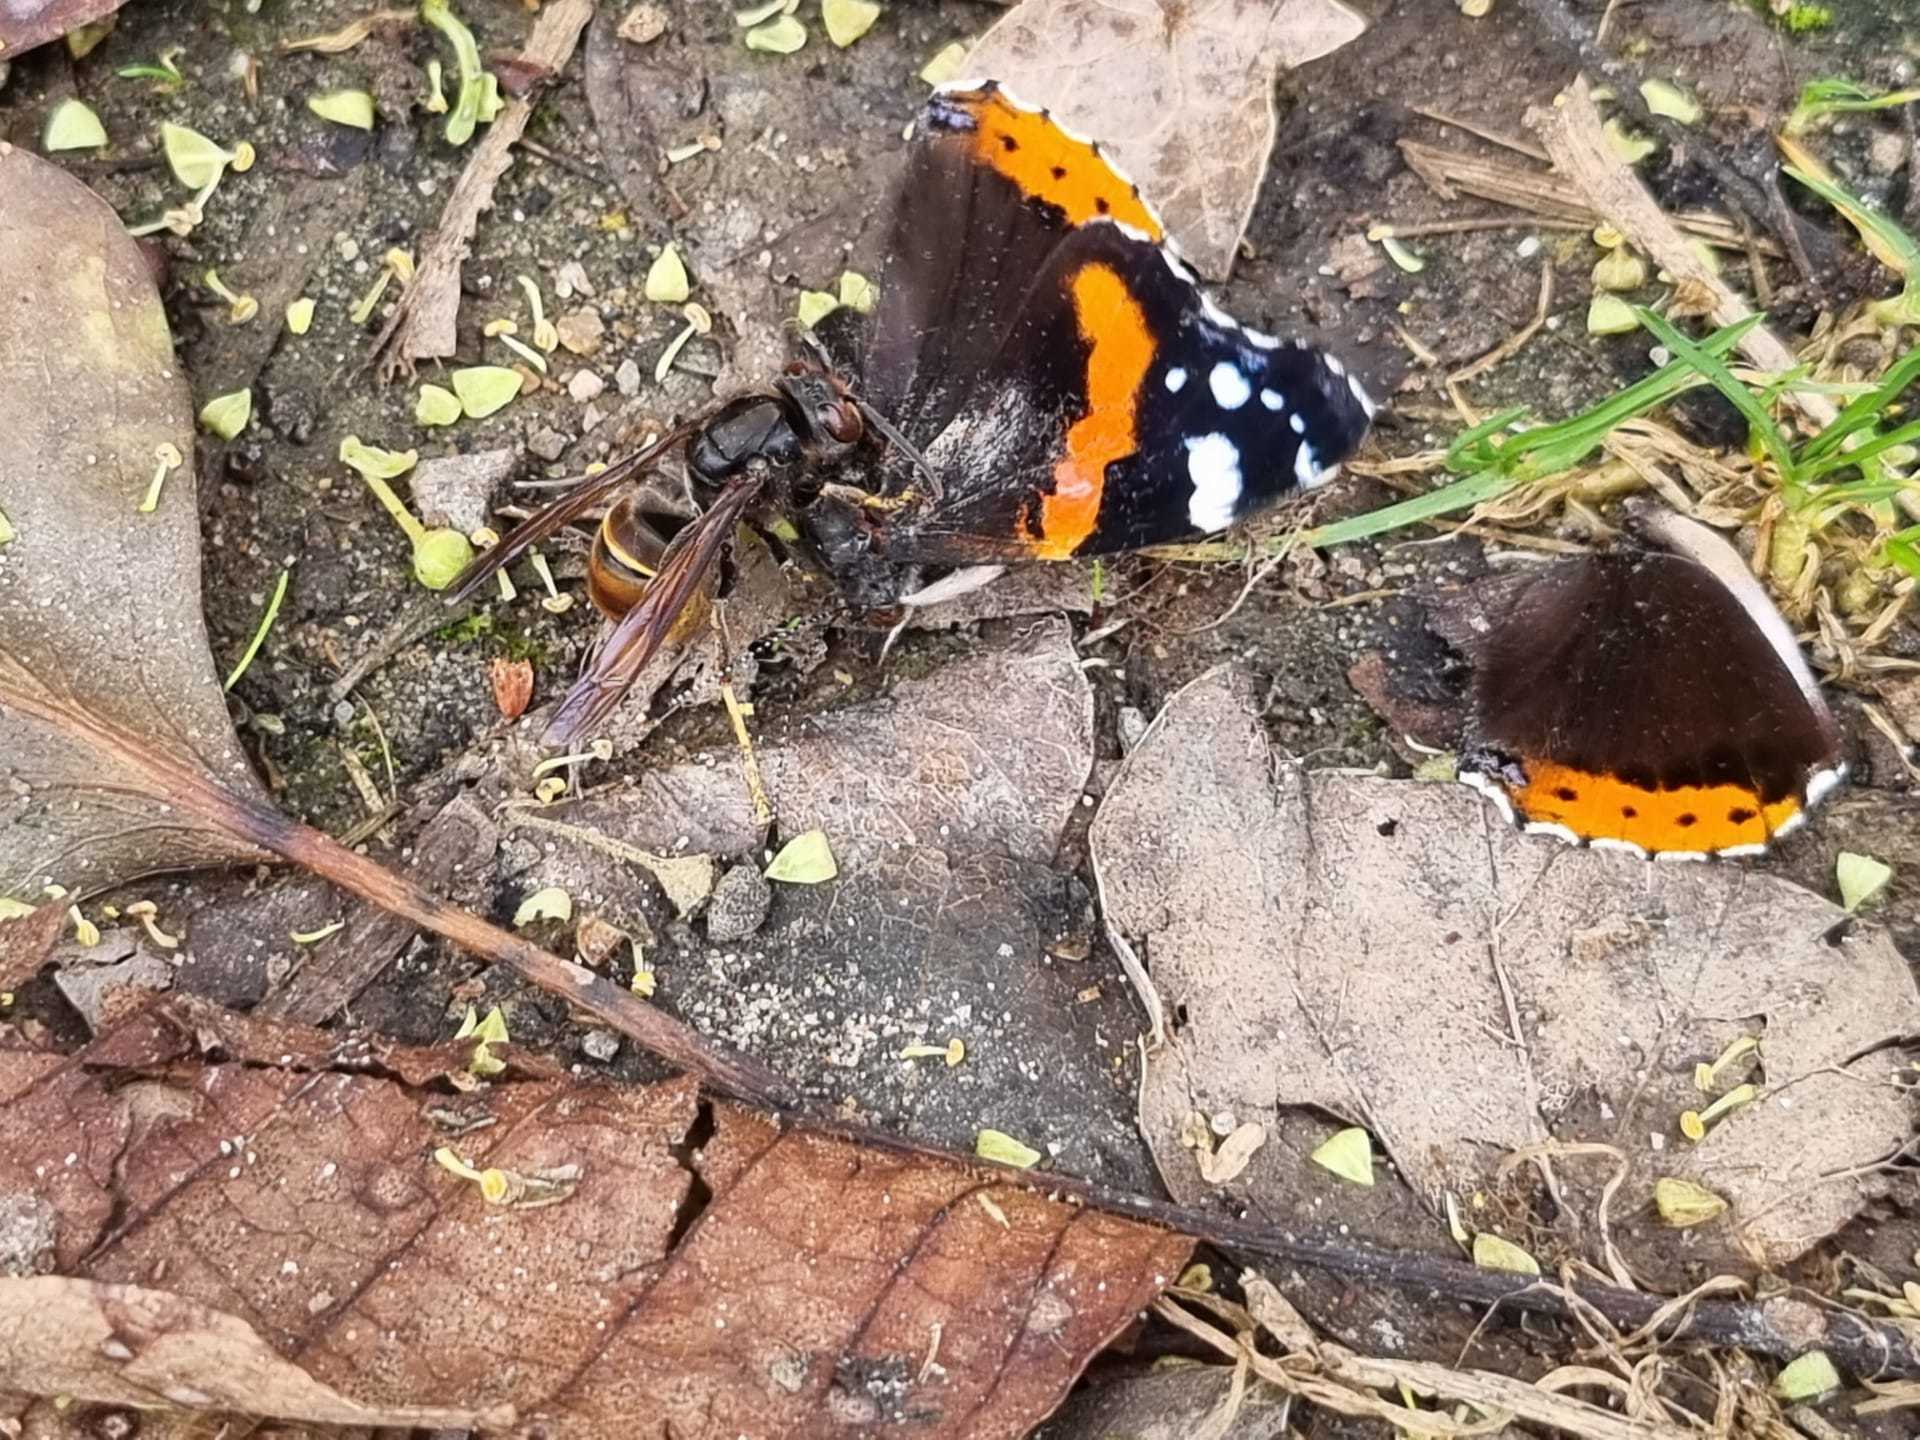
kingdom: Animalia
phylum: Arthropoda
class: Insecta
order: Hymenoptera
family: Vespidae
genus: Vespa
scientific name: Vespa velutina
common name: Asian hornet
